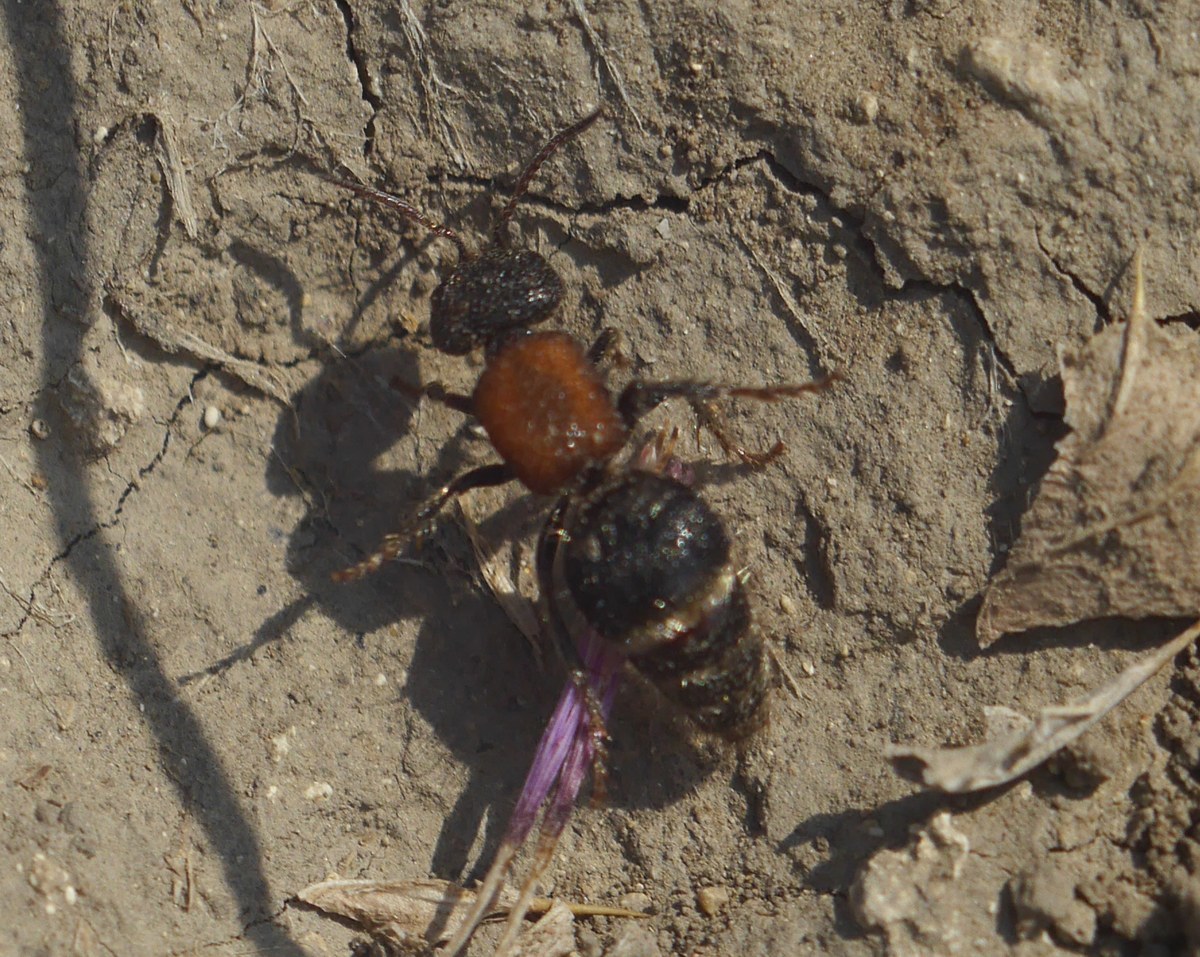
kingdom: Animalia
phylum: Arthropoda
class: Insecta
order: Hymenoptera
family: Mutillidae
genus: Tropidotilla
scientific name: Tropidotilla litoralis
